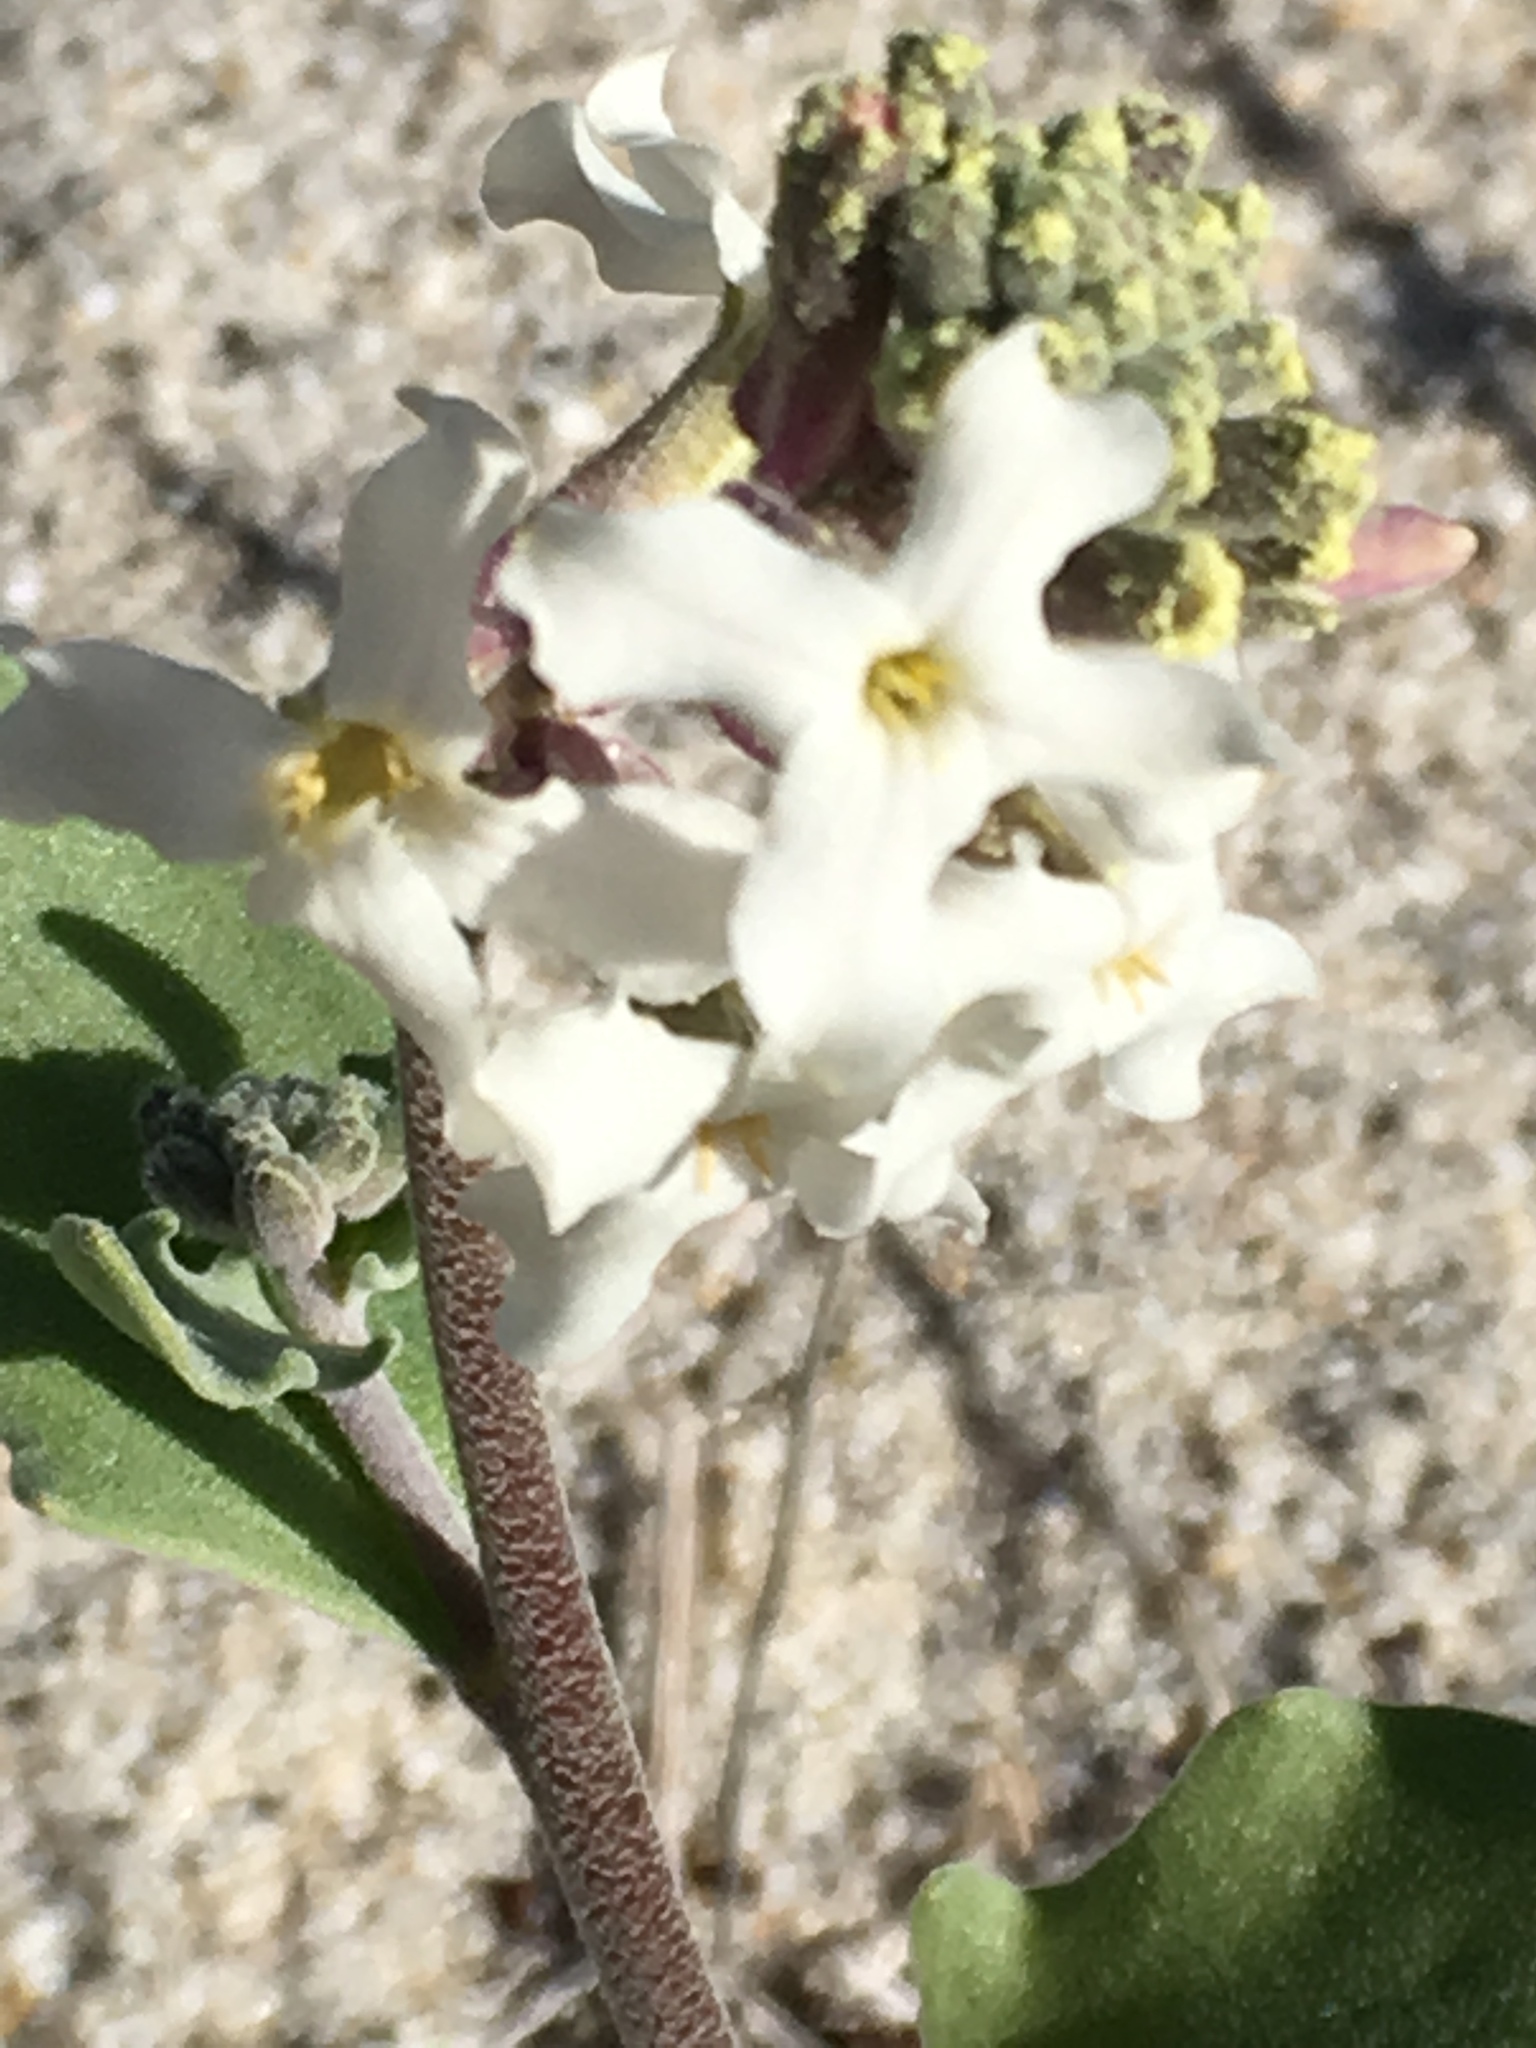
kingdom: Plantae
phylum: Tracheophyta
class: Magnoliopsida
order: Brassicales
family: Brassicaceae
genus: Dithyrea
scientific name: Dithyrea californica
